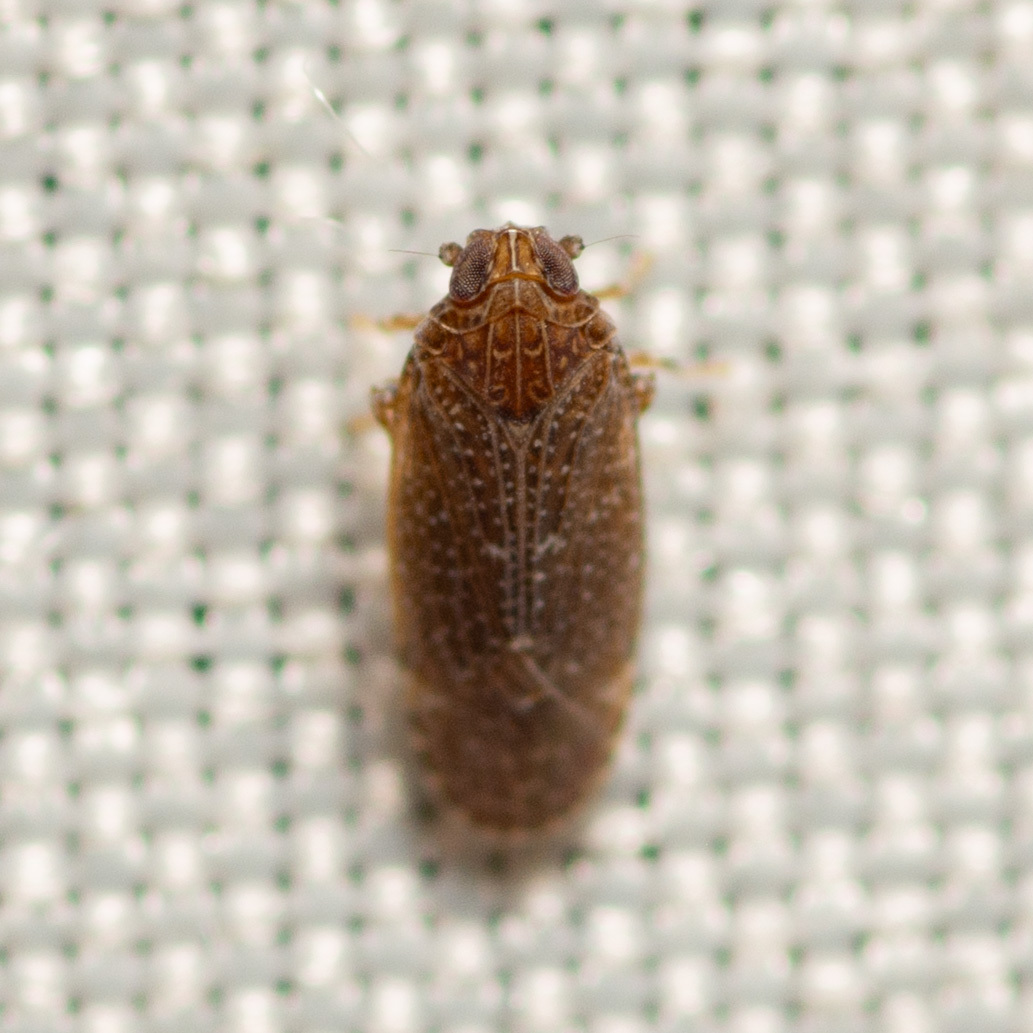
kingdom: Animalia
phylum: Arthropoda
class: Insecta
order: Hemiptera
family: Achilidae
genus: Opsiplanon
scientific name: Opsiplanon luellus
